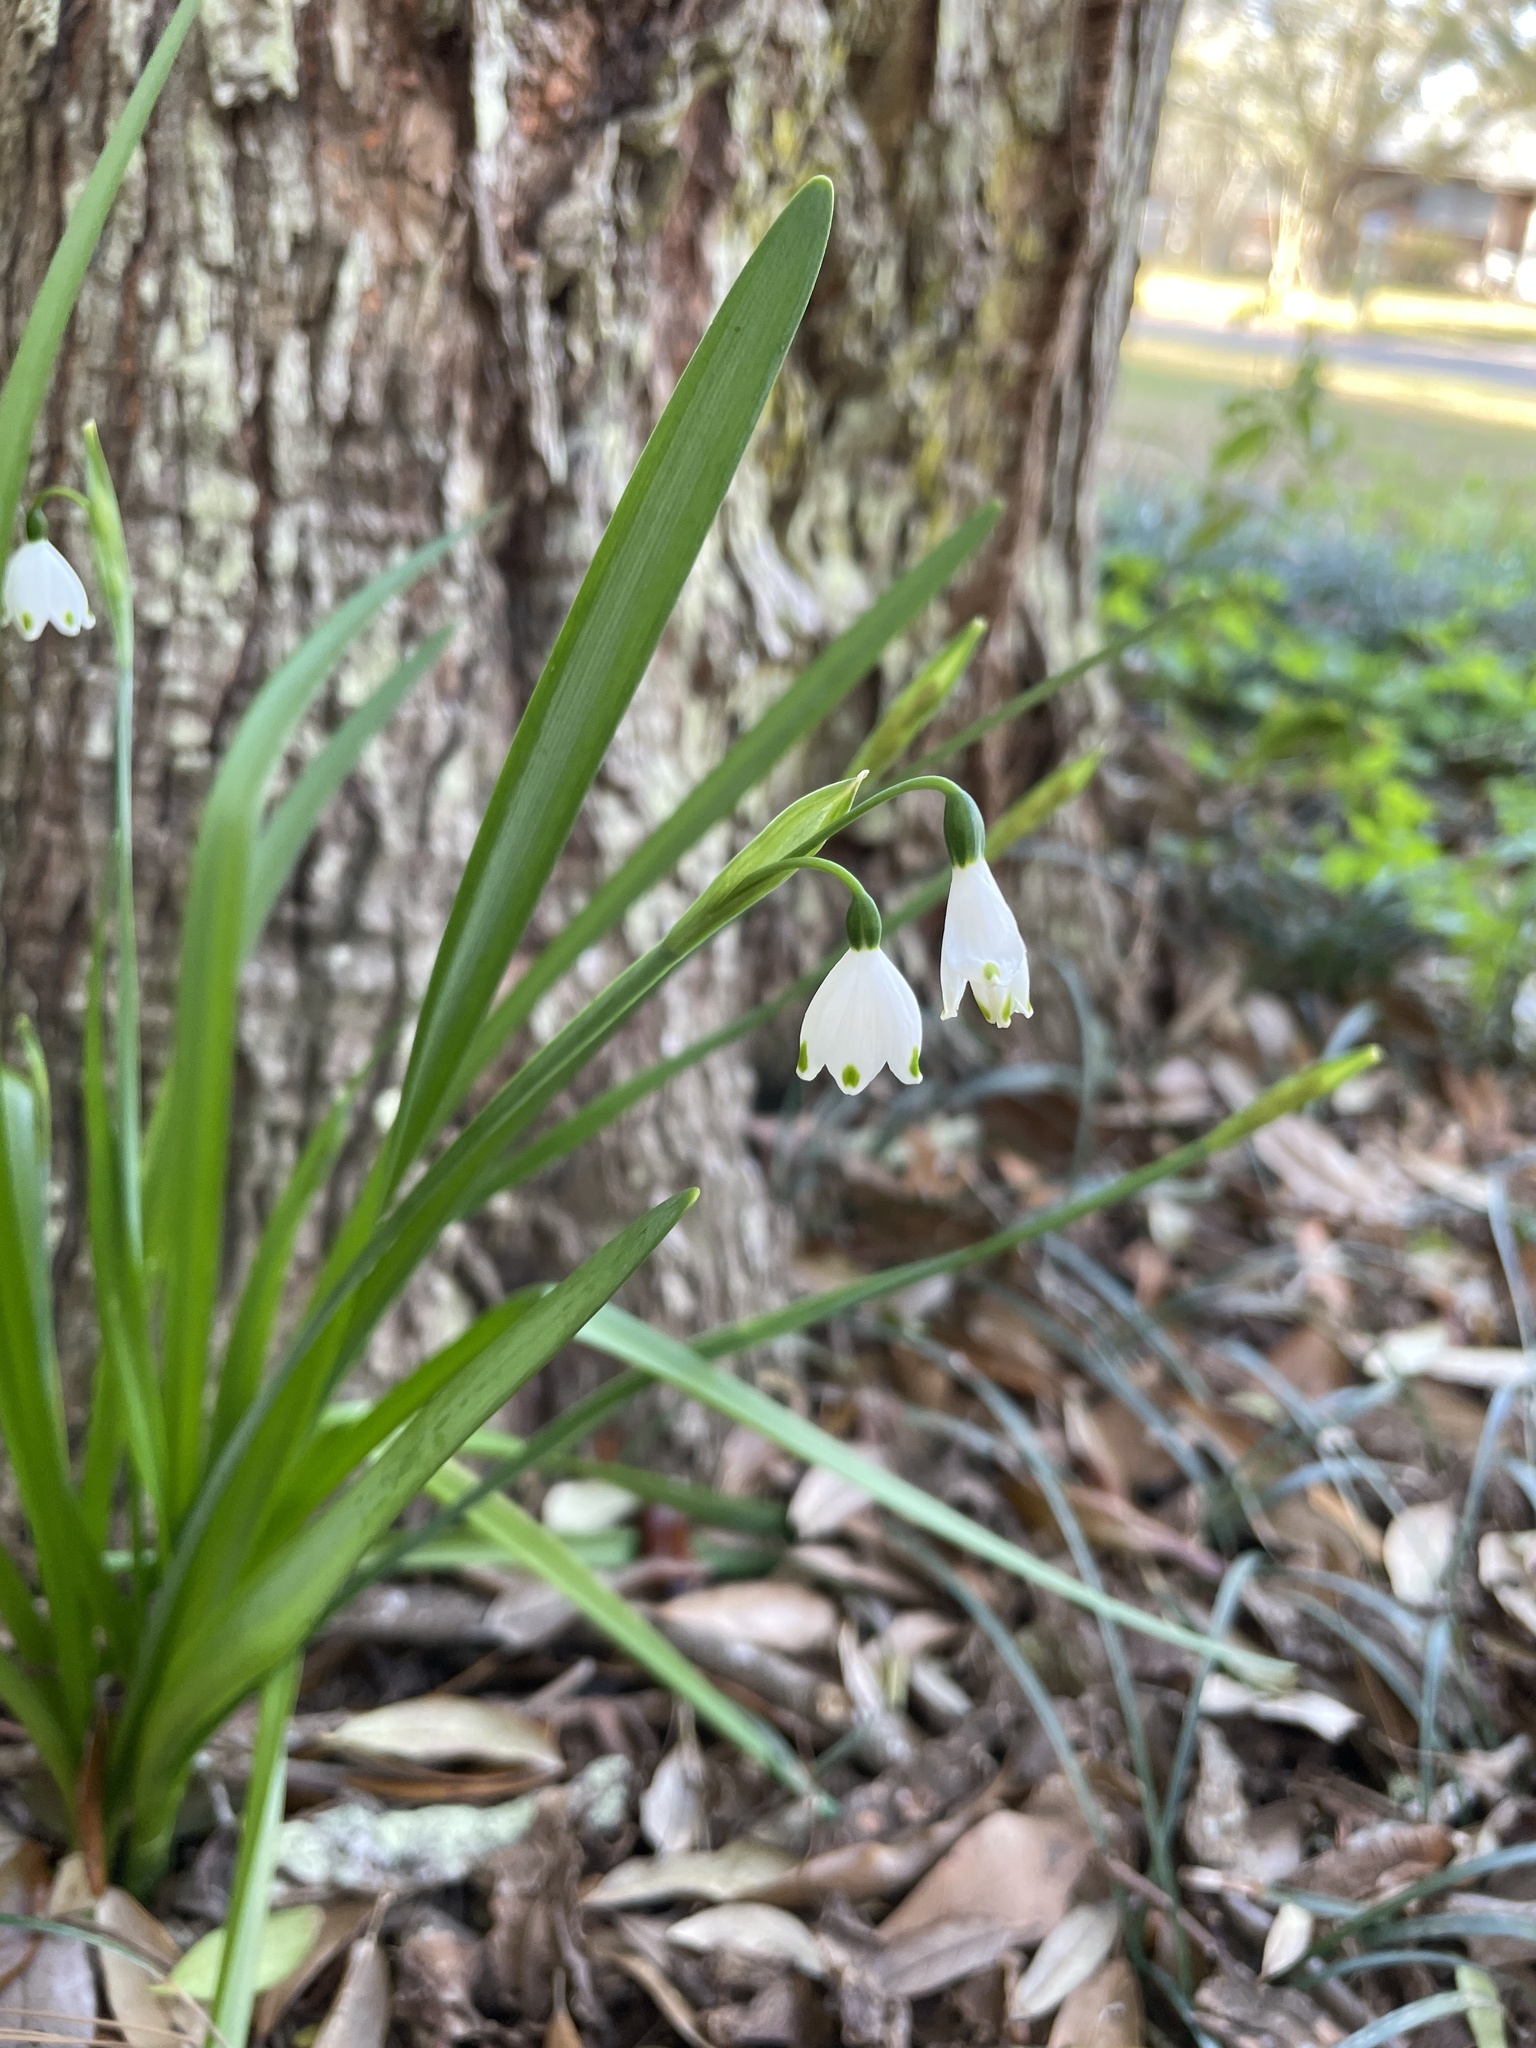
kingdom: Plantae
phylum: Tracheophyta
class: Liliopsida
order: Asparagales
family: Amaryllidaceae
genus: Leucojum
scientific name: Leucojum aestivum
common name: Summer snowflake
